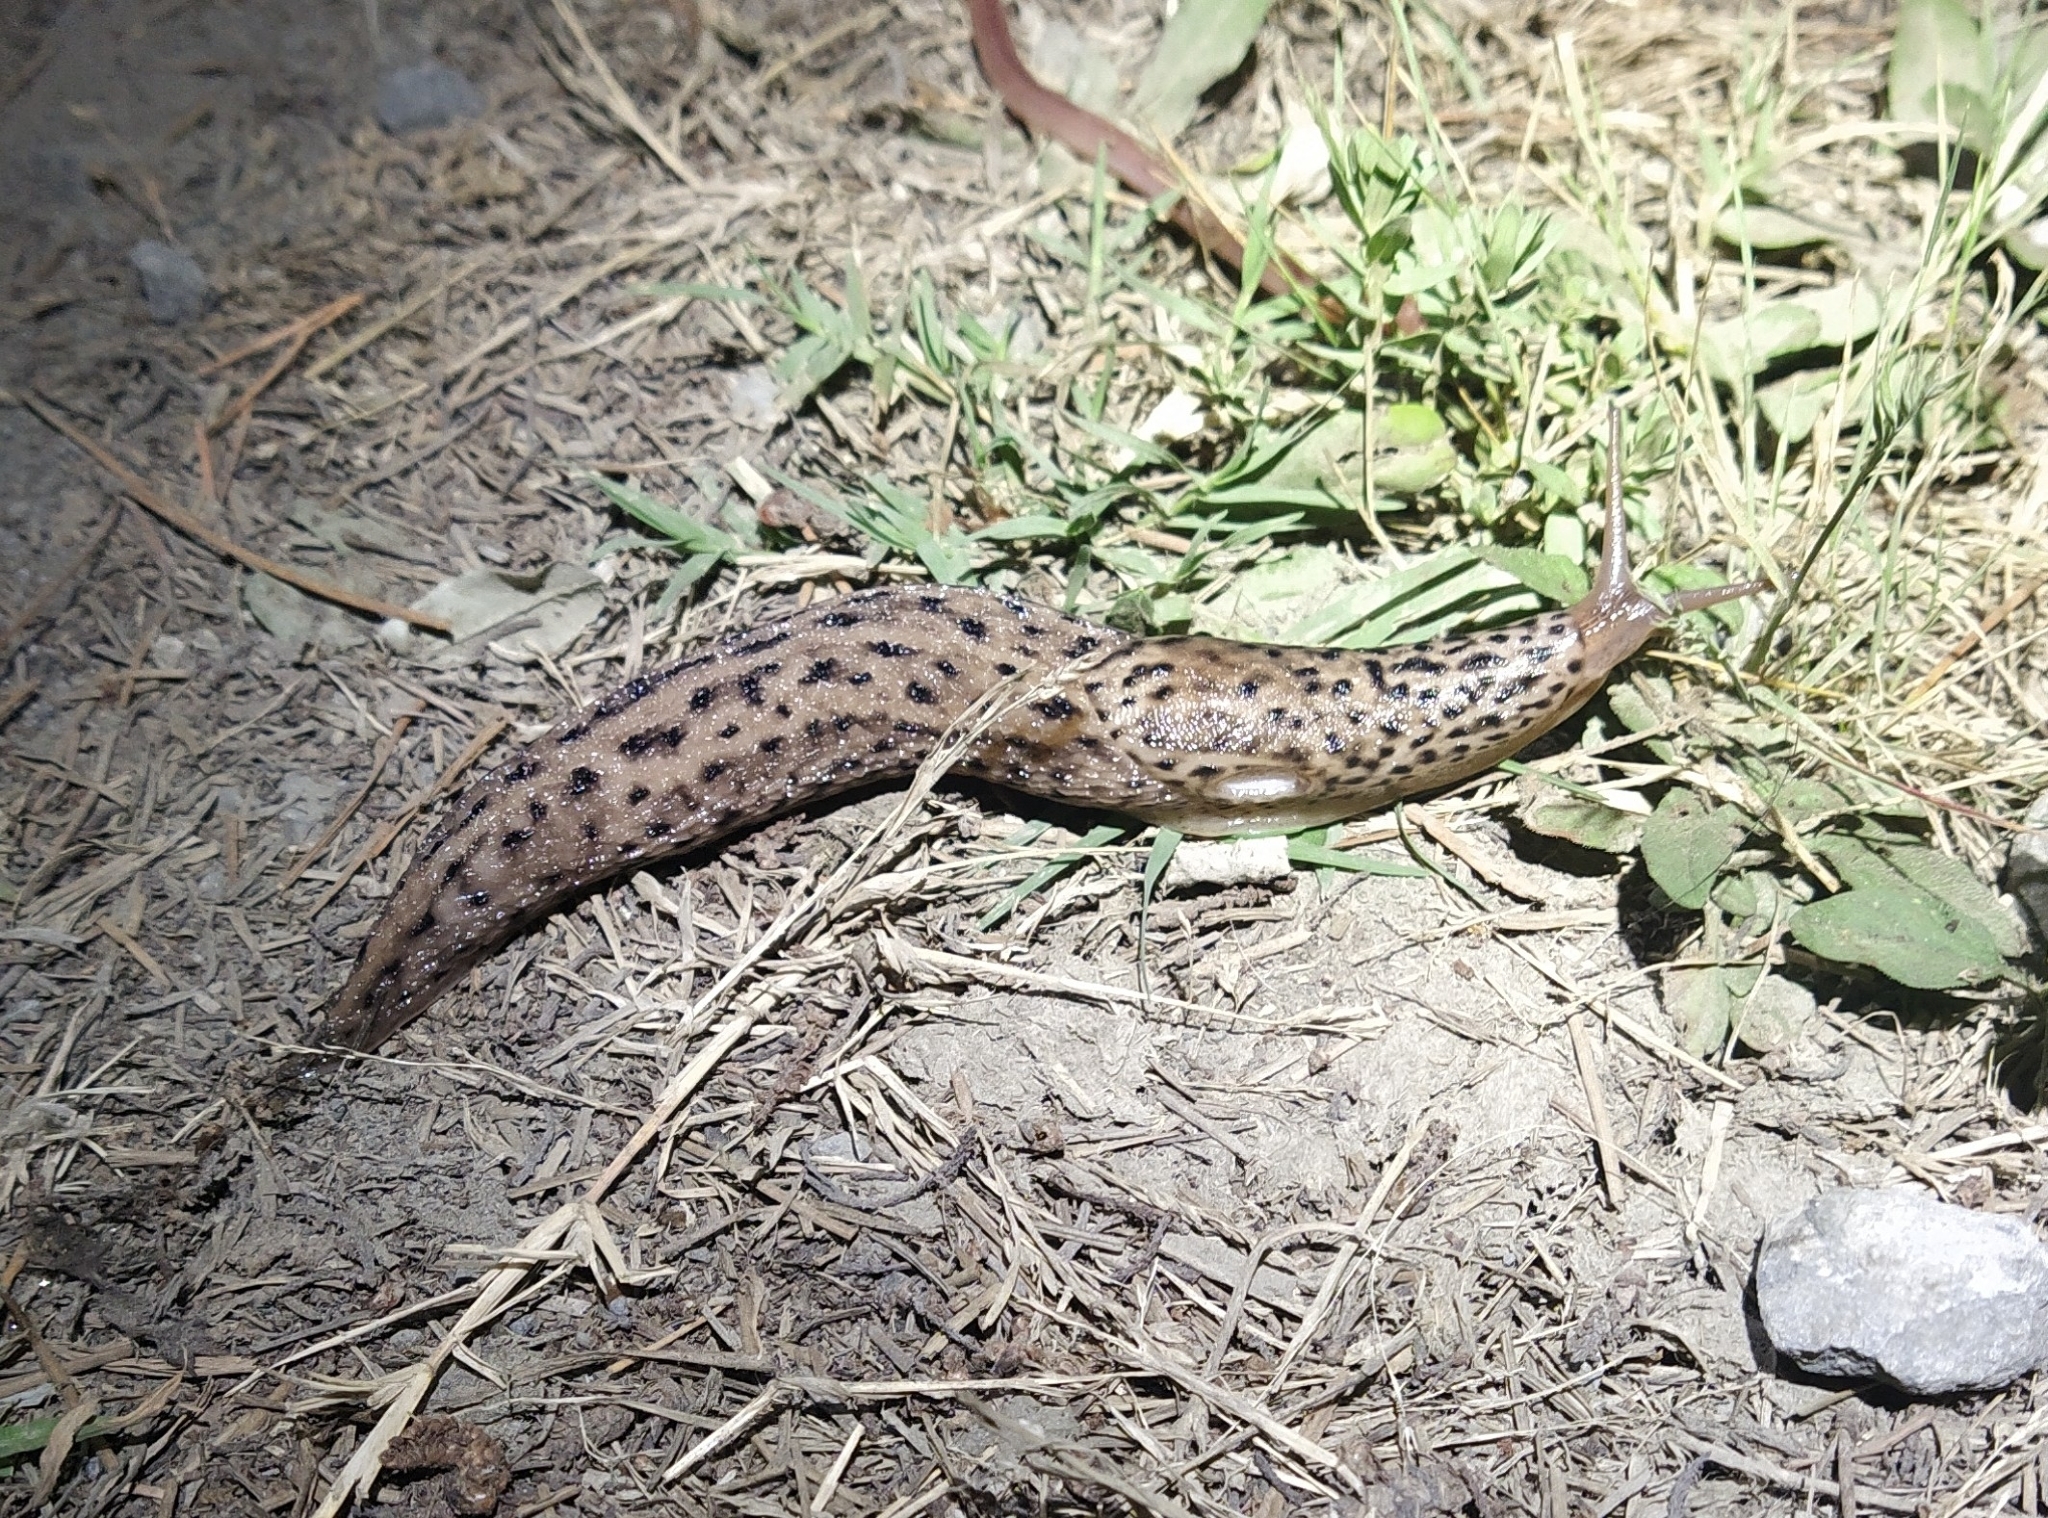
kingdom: Animalia
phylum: Mollusca
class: Gastropoda
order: Stylommatophora
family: Limacidae
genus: Limax
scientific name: Limax maximus
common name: Great grey slug
